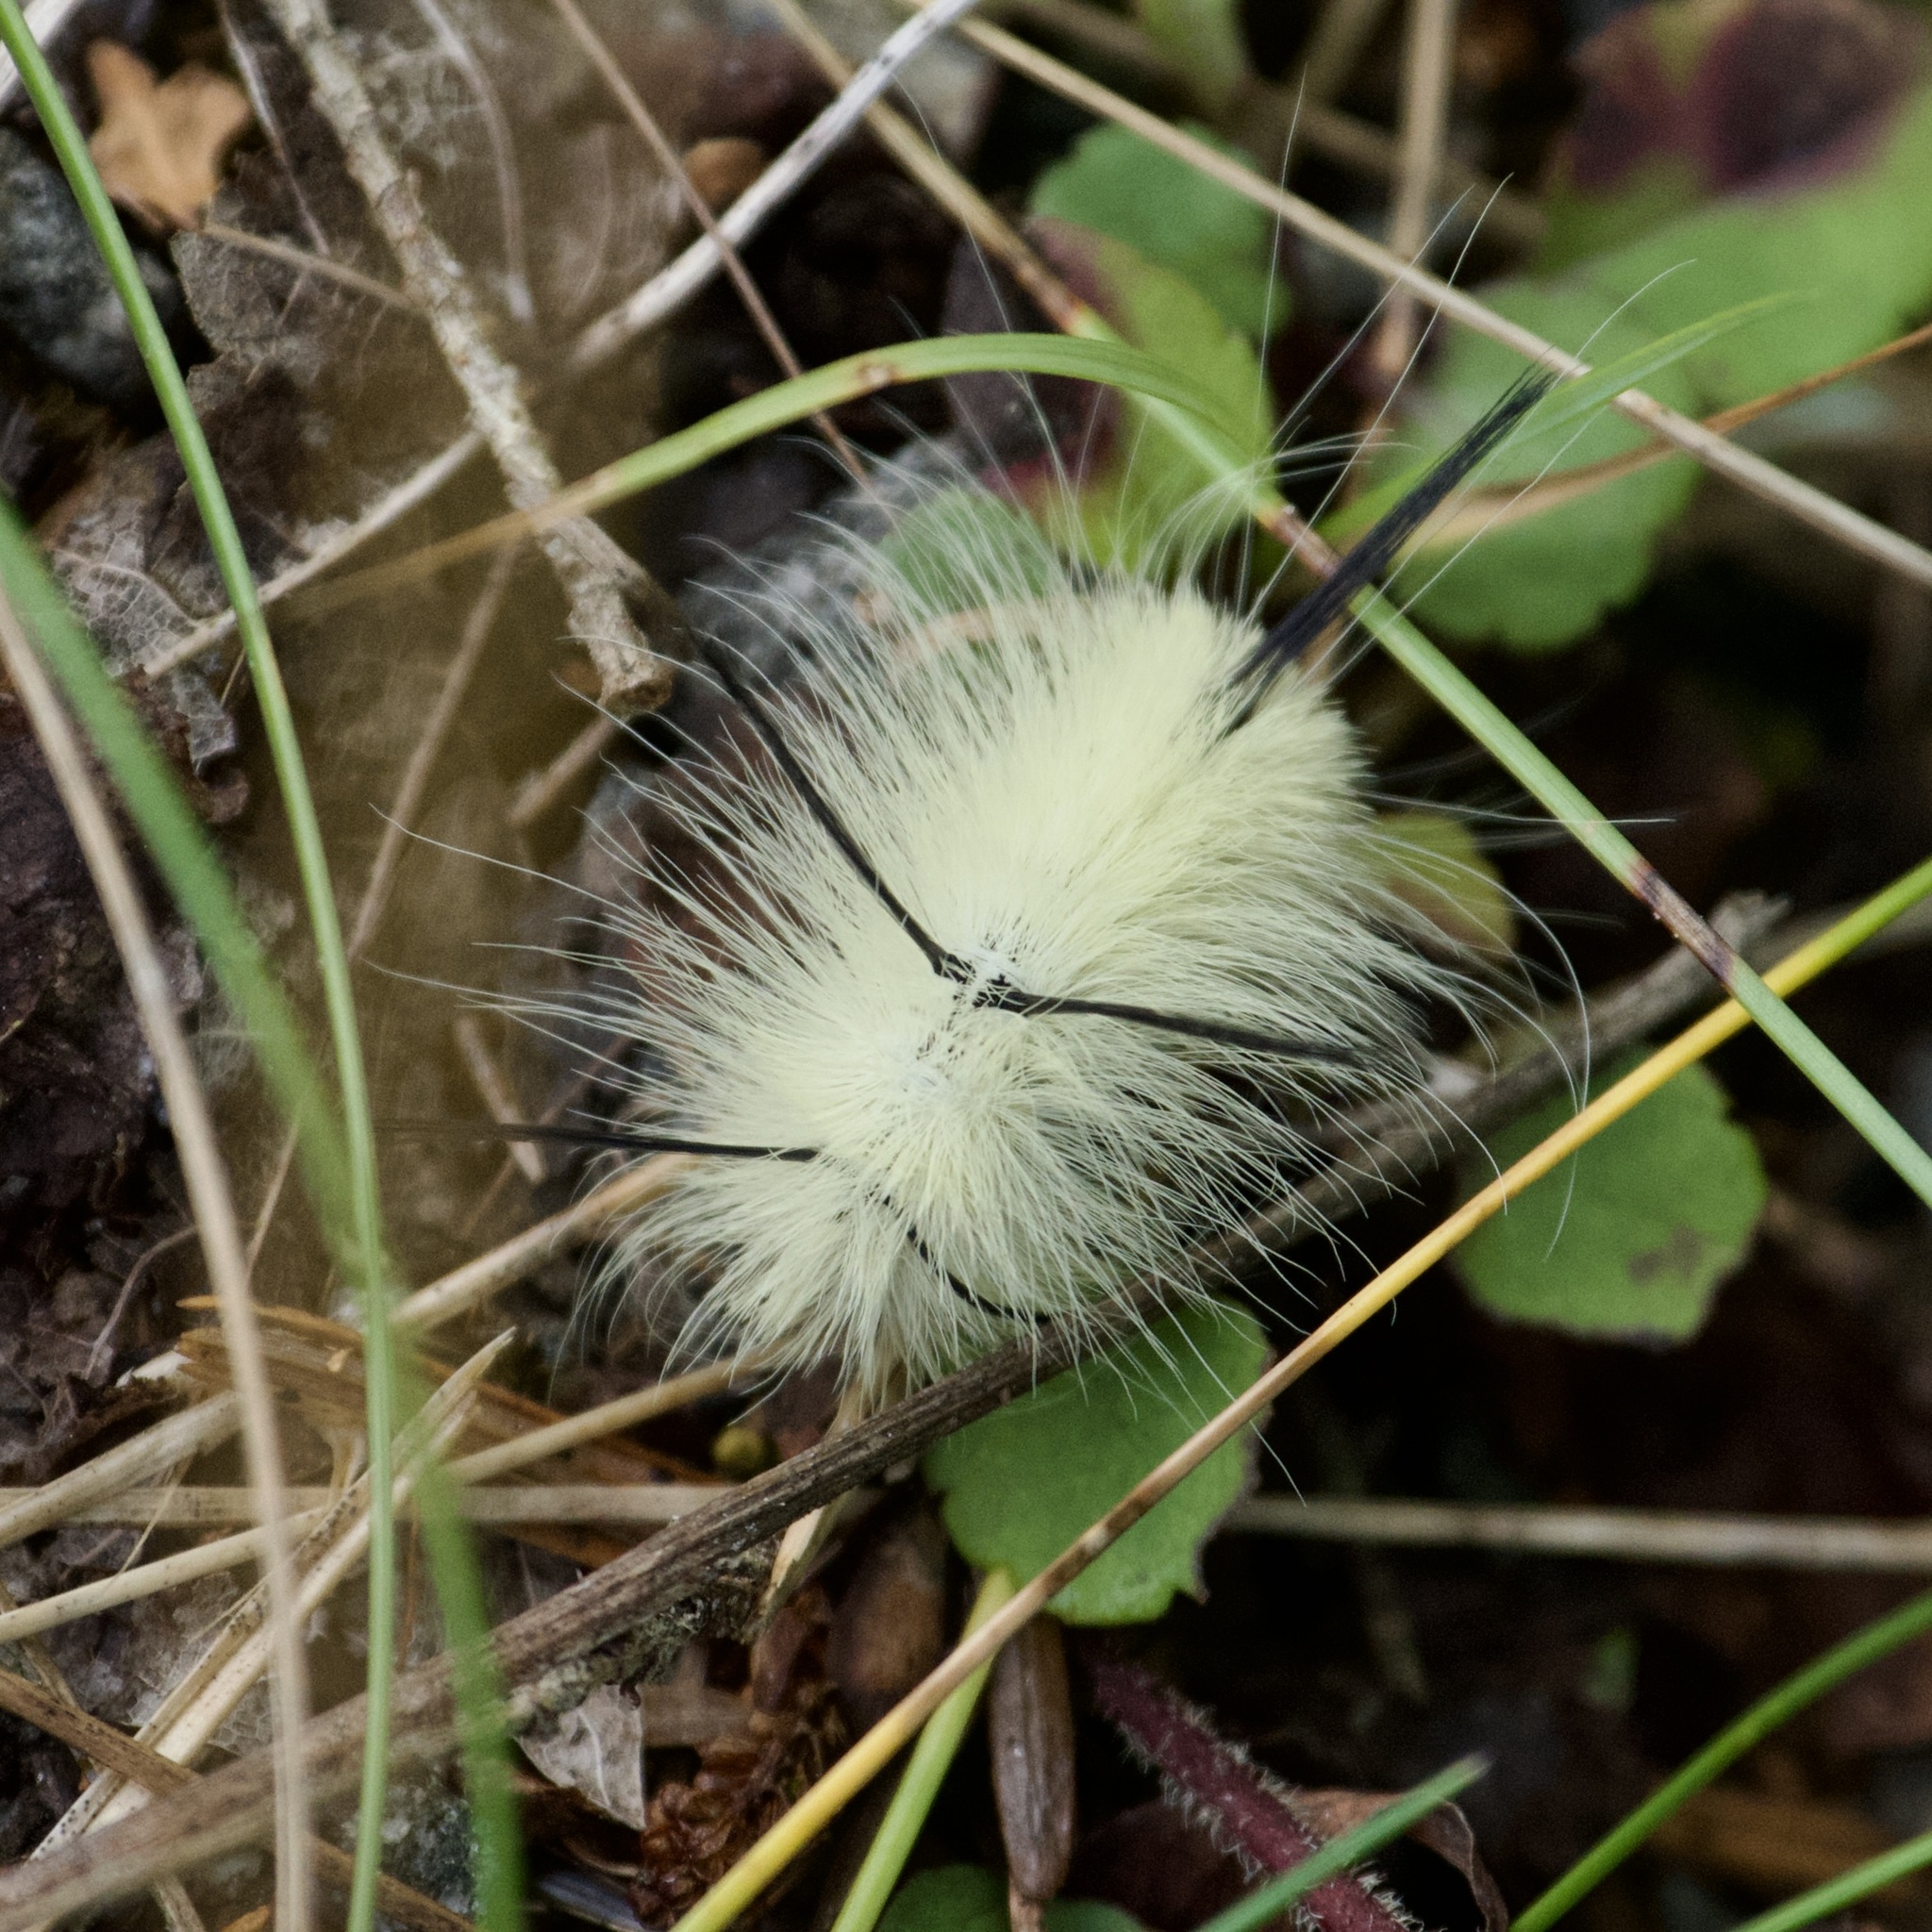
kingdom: Animalia
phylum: Arthropoda
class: Insecta
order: Lepidoptera
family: Noctuidae
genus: Acronicta
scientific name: Acronicta americana
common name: American dagger
